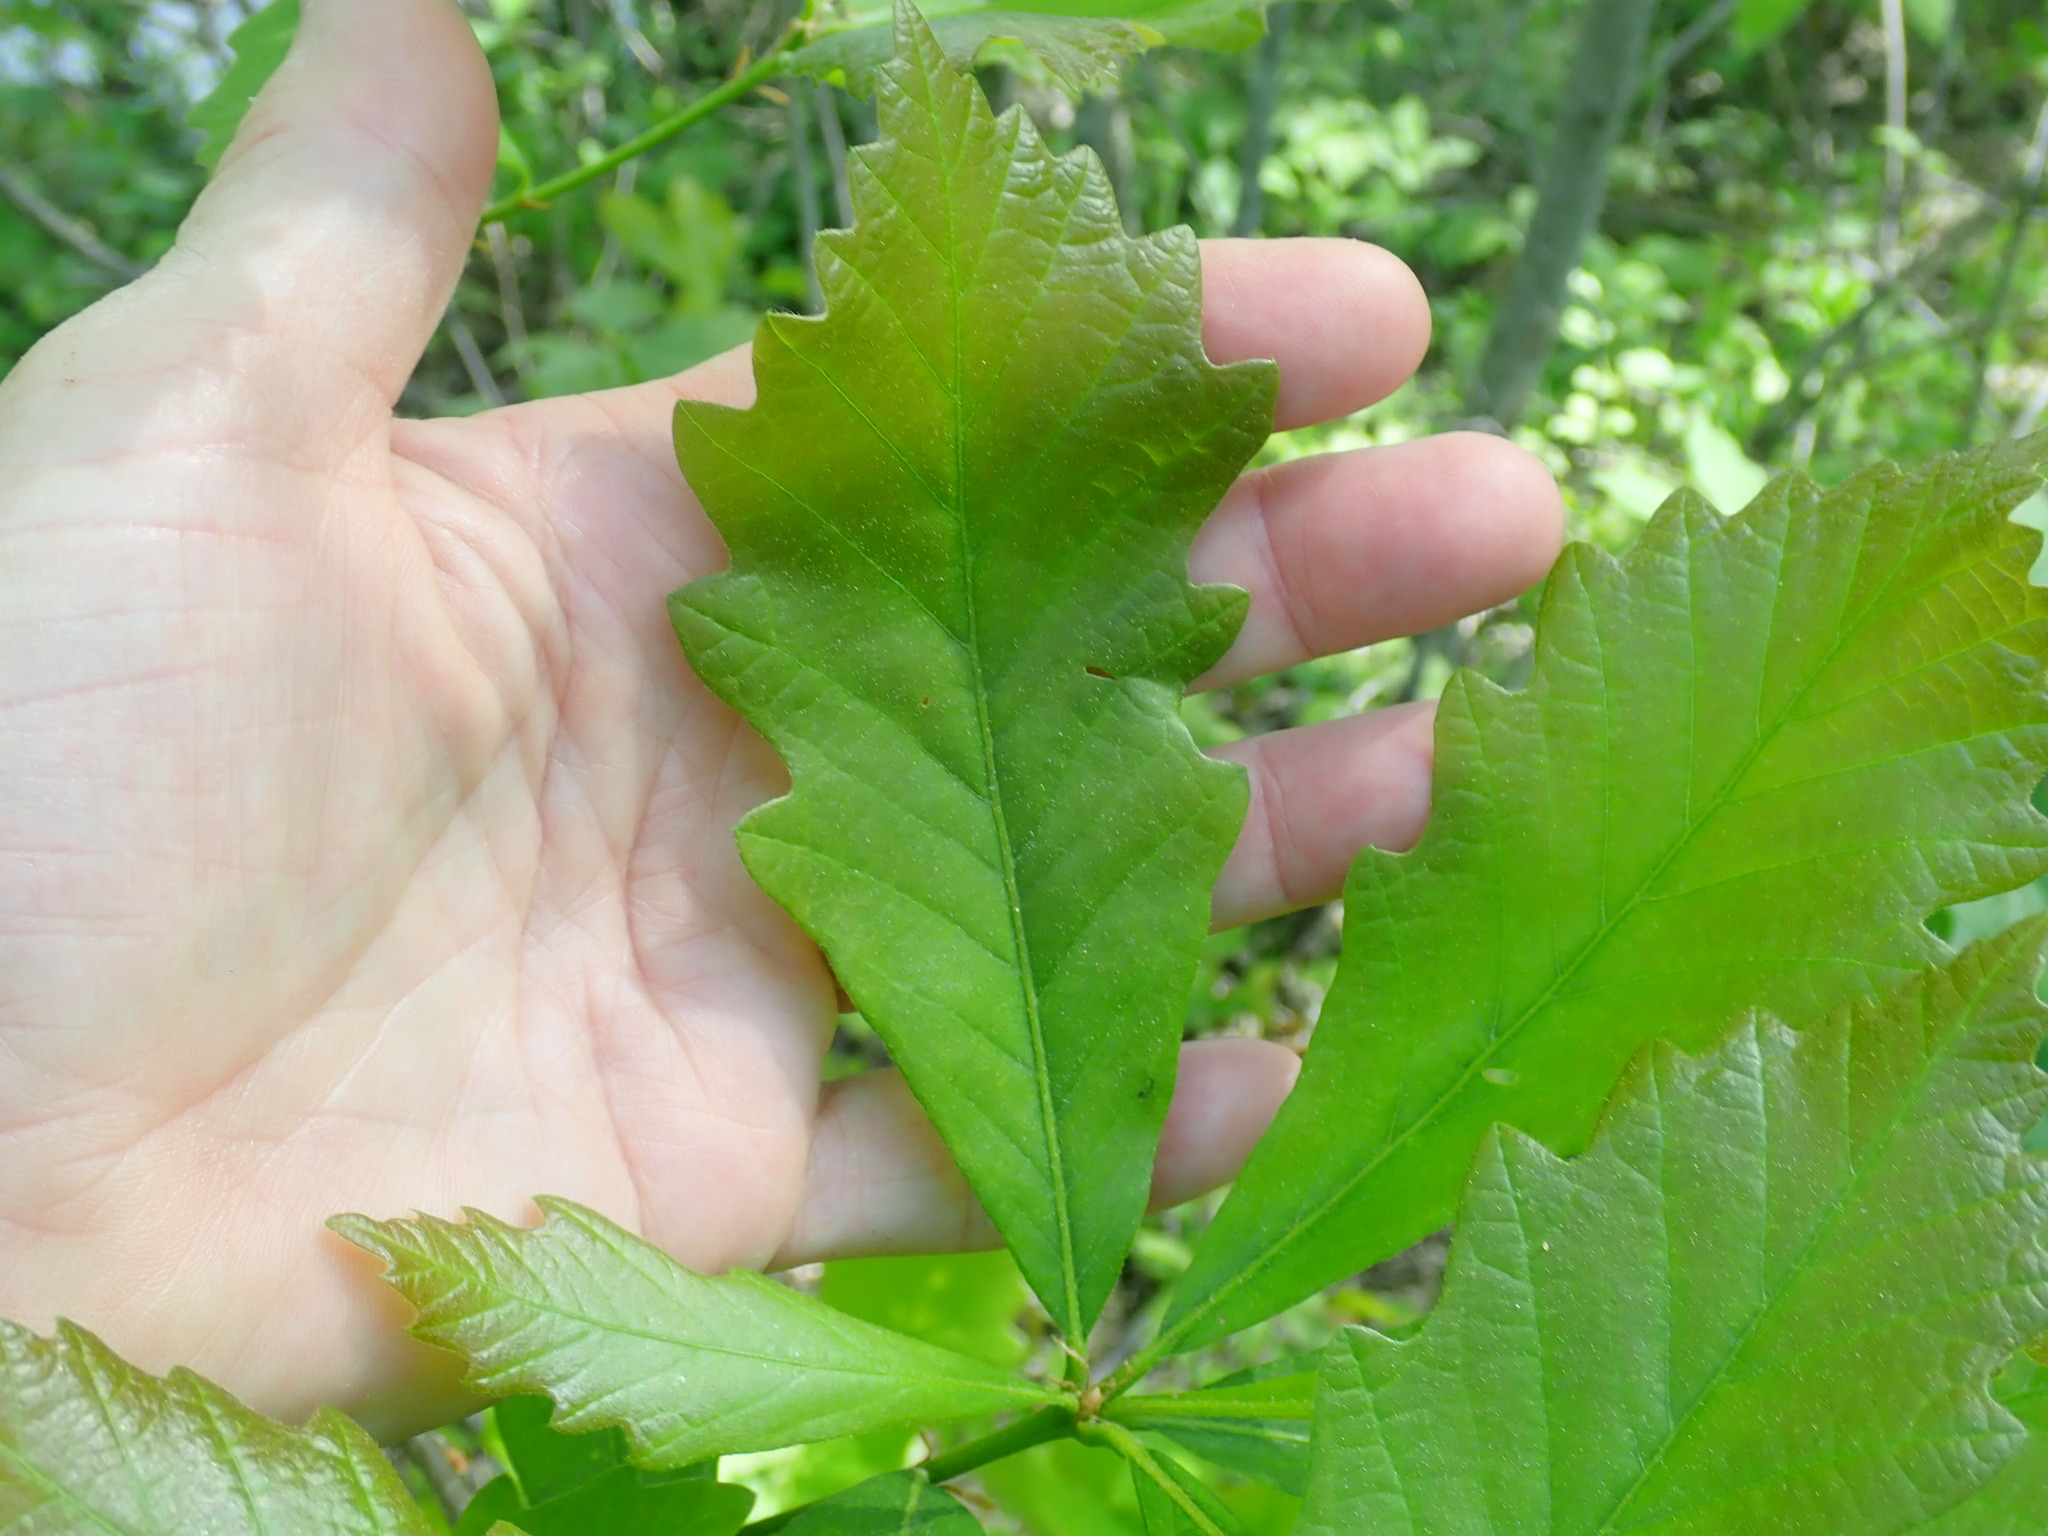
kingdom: Animalia
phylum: Arthropoda
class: Insecta
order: Hymenoptera
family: Cynipidae
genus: Disholcaspis
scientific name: Disholcaspis
